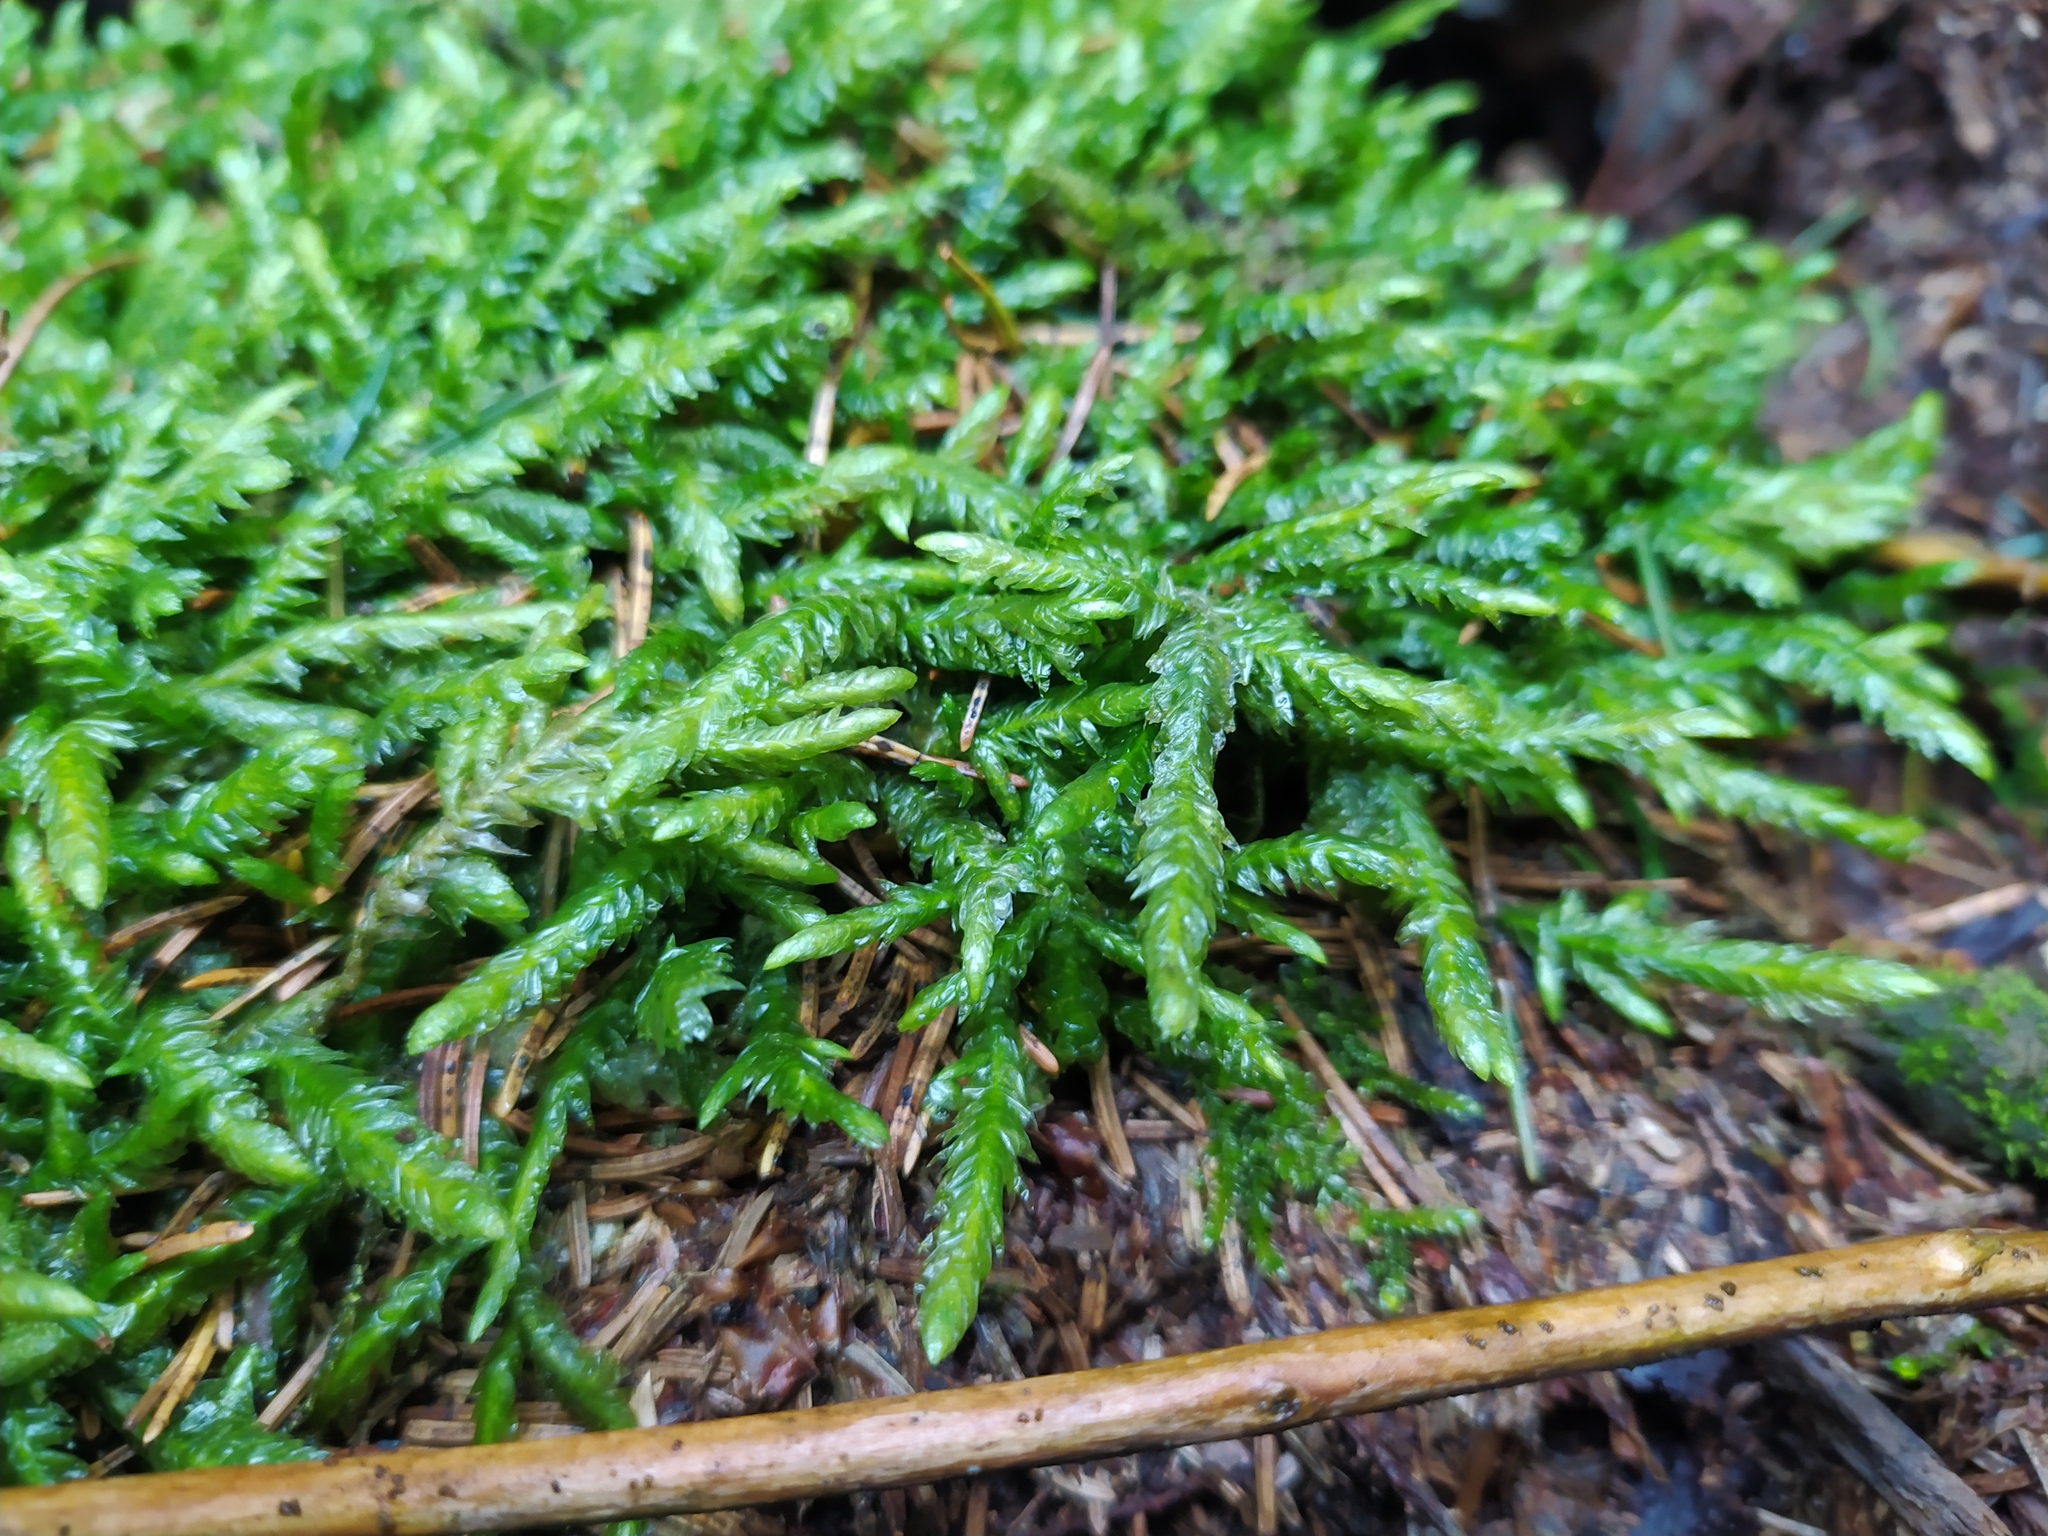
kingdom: Plantae
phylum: Bryophyta
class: Bryopsida
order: Hypnales
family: Plagiotheciaceae
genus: Plagiothecium
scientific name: Plagiothecium undulatum
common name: Waved silk-moss
